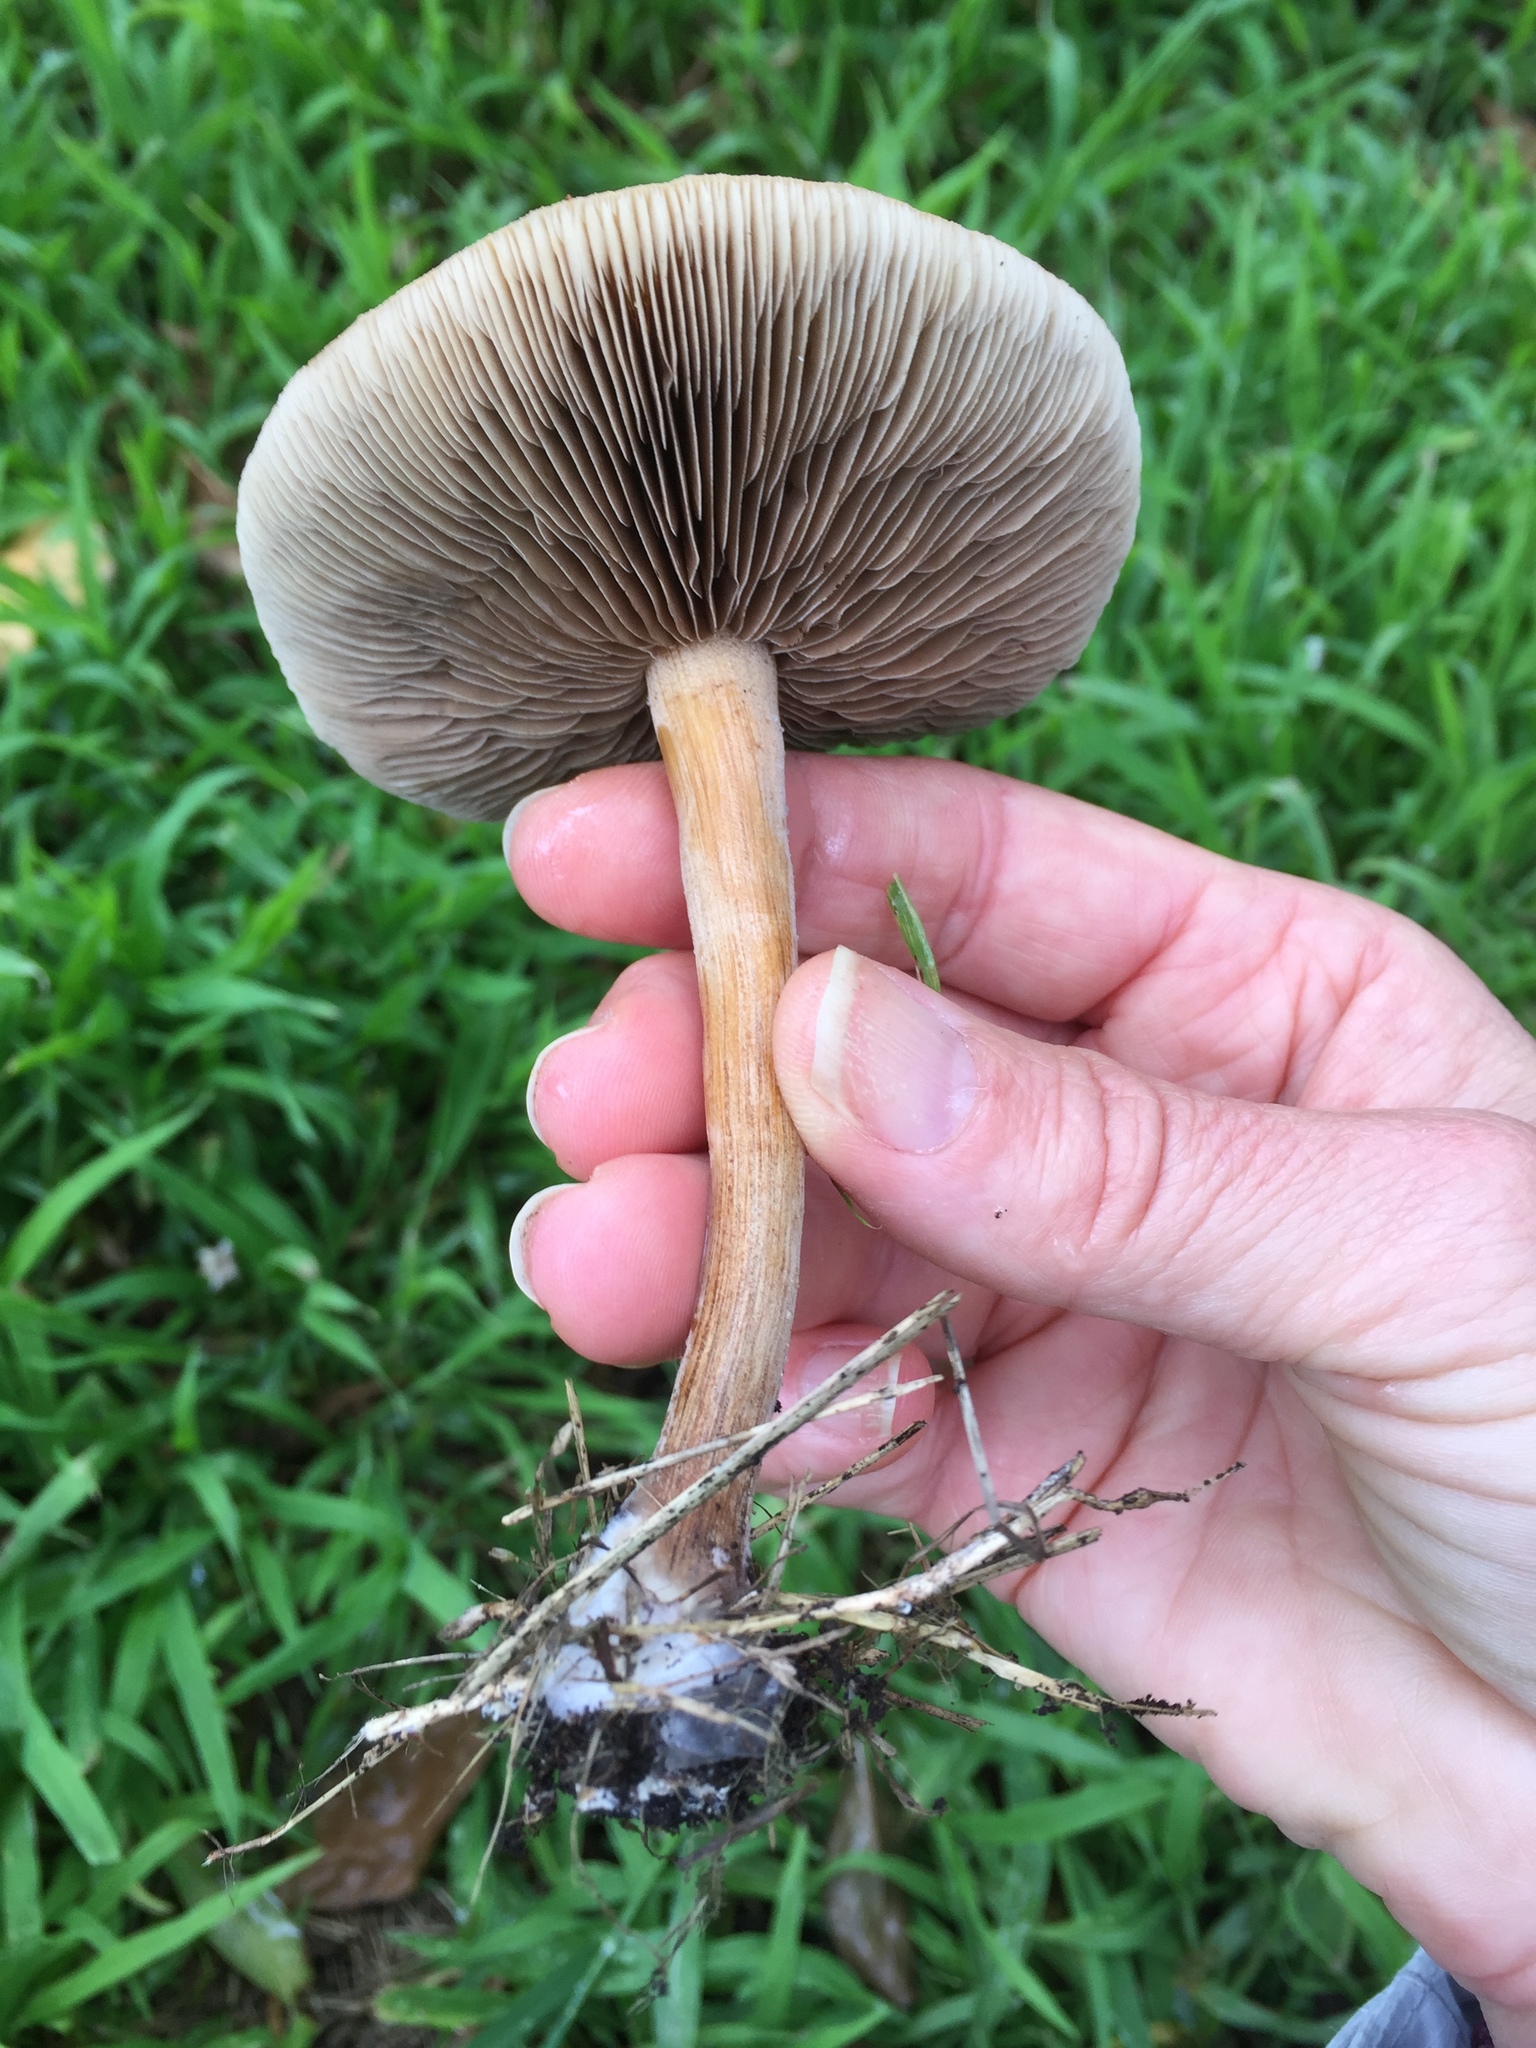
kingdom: Fungi
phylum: Basidiomycota
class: Agaricomycetes
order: Agaricales
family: Strophariaceae
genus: Leratiomyces
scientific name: Leratiomyces percevalii
